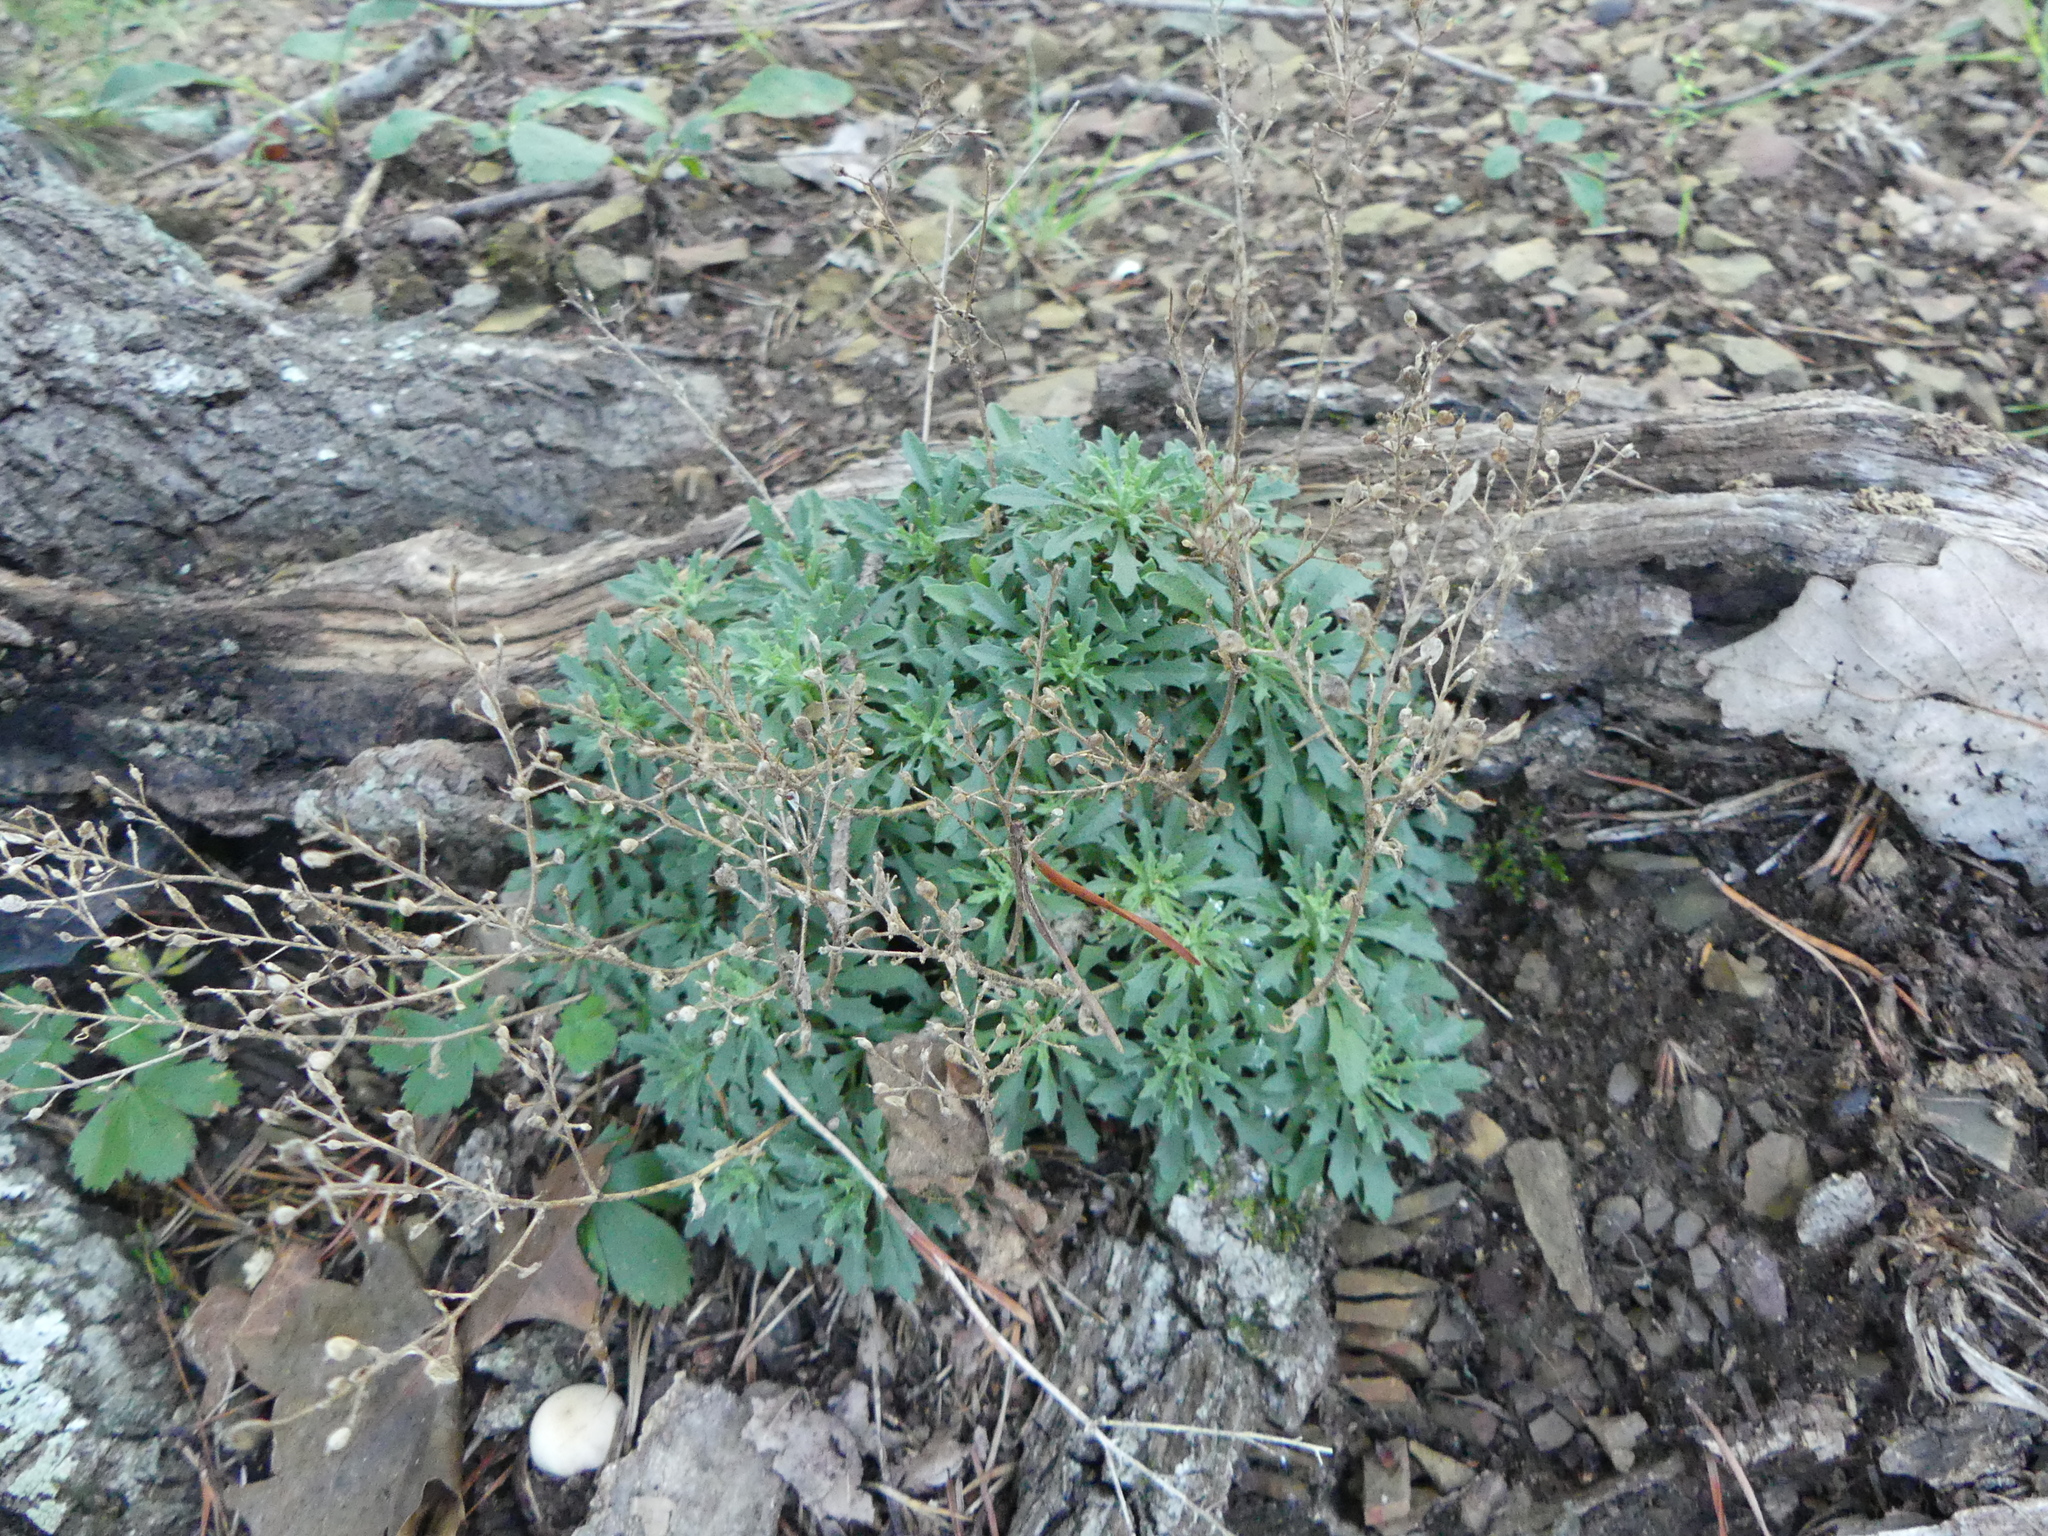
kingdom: Plantae
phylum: Tracheophyta
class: Magnoliopsida
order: Brassicales
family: Brassicaceae
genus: Draba
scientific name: Draba ramosissima
